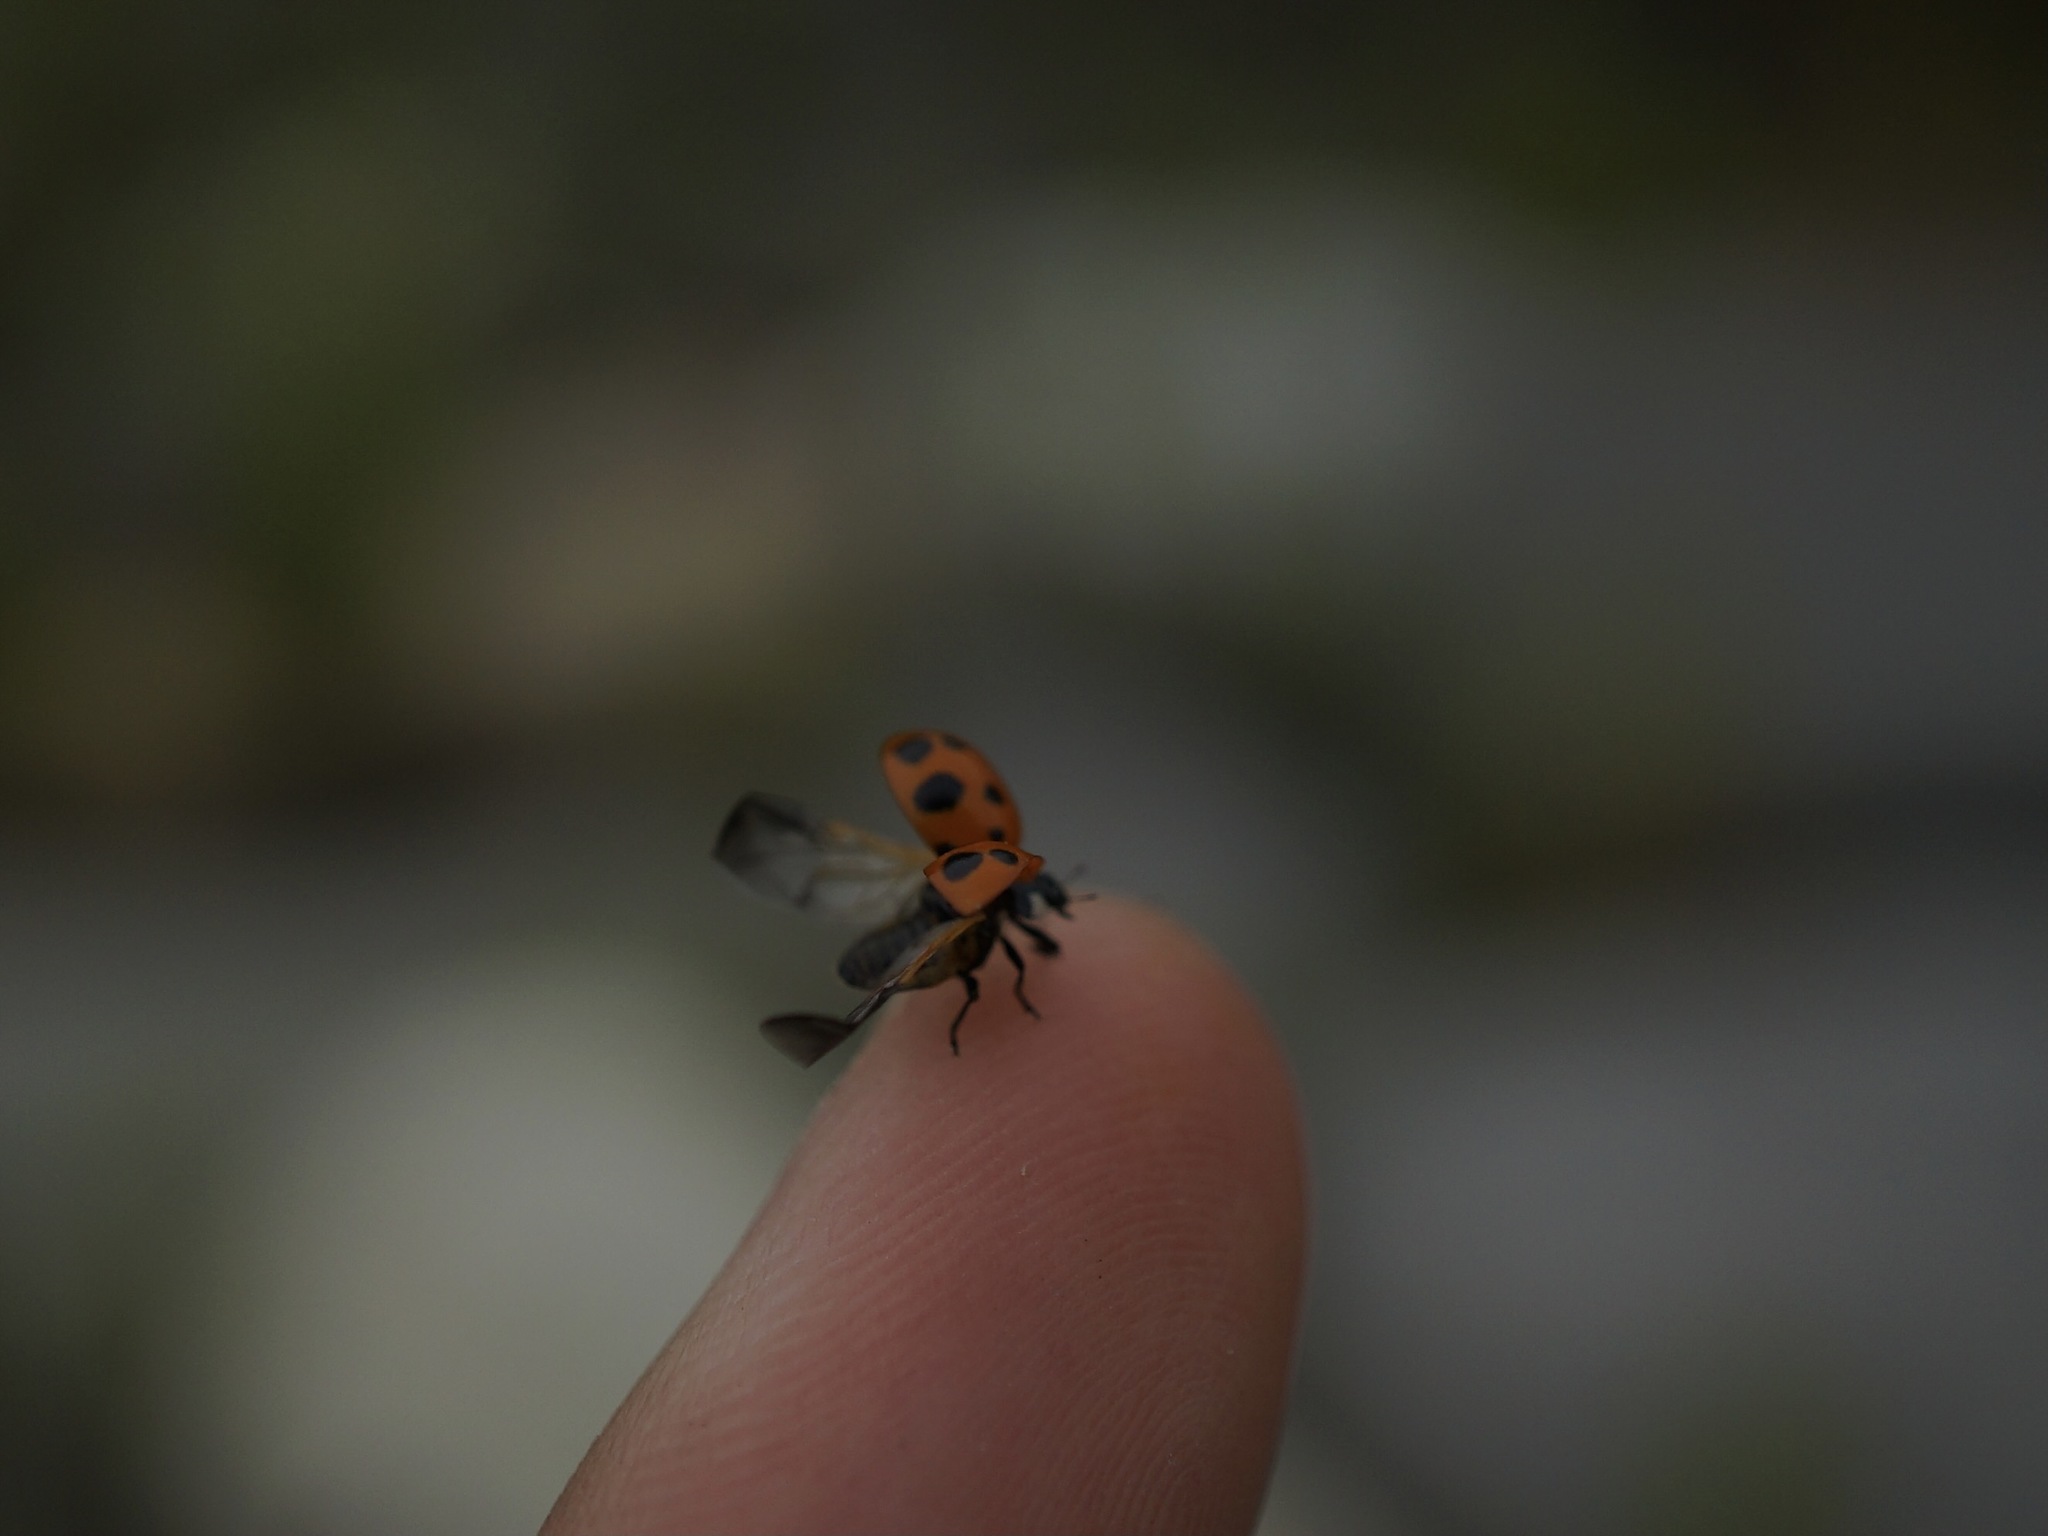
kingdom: Animalia
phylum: Arthropoda
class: Insecta
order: Coleoptera
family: Coccinellidae
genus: Coccinella
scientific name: Coccinella ainu
